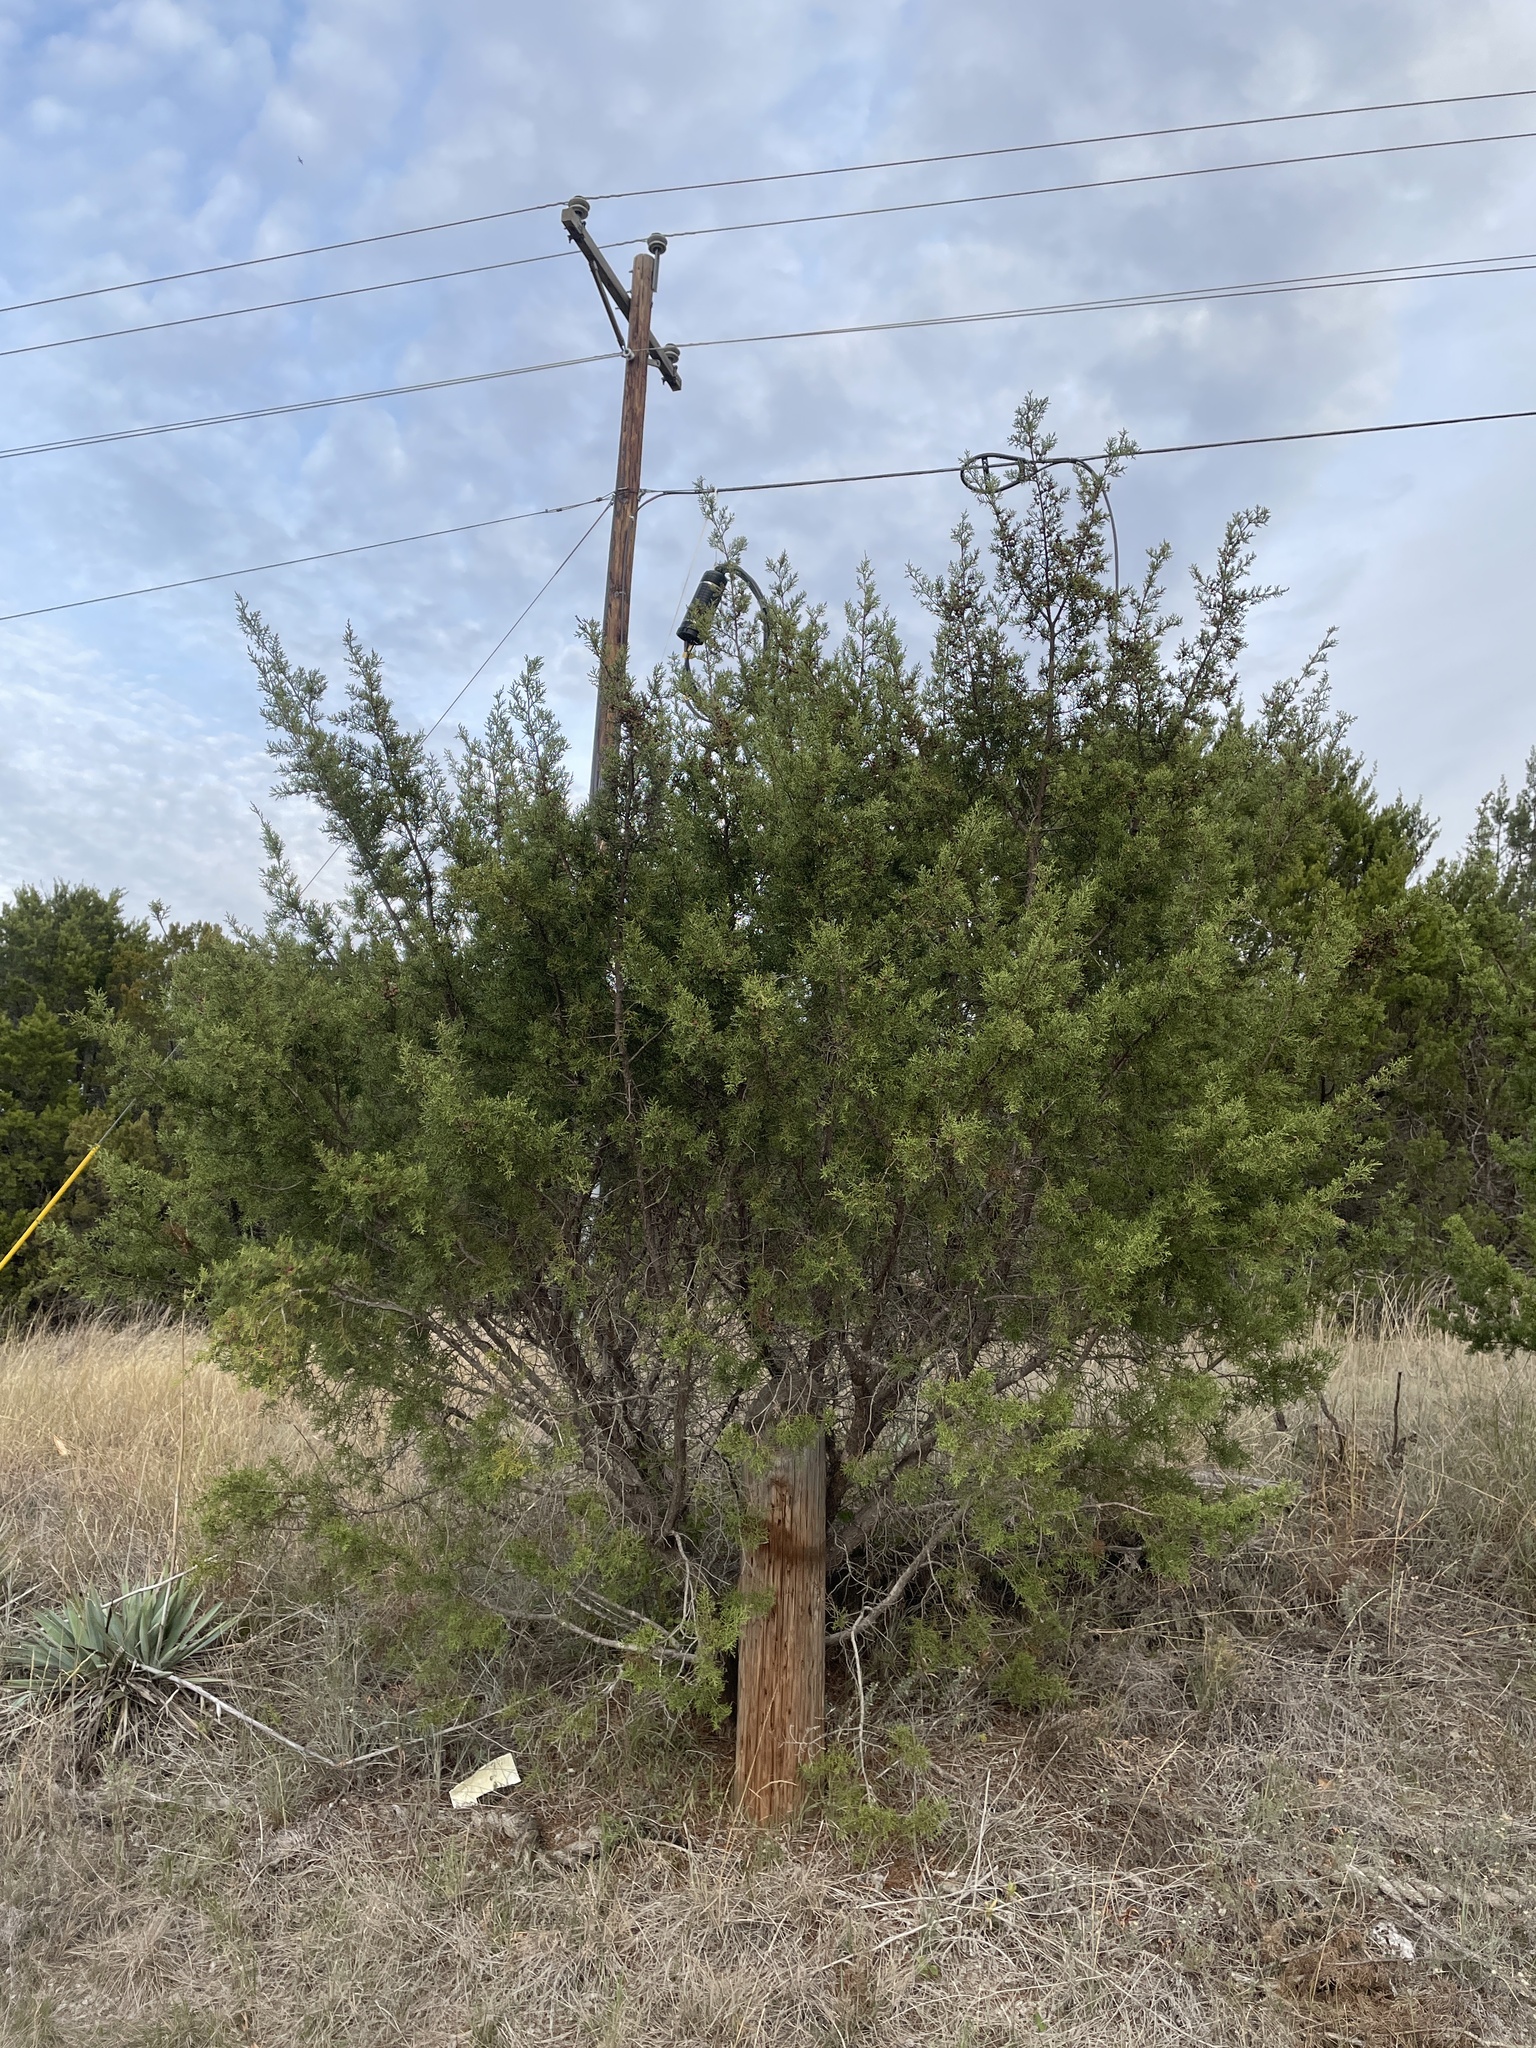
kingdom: Plantae
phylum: Tracheophyta
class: Pinopsida
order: Pinales
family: Cupressaceae
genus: Juniperus
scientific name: Juniperus pinchotii
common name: Pinchot juniper
